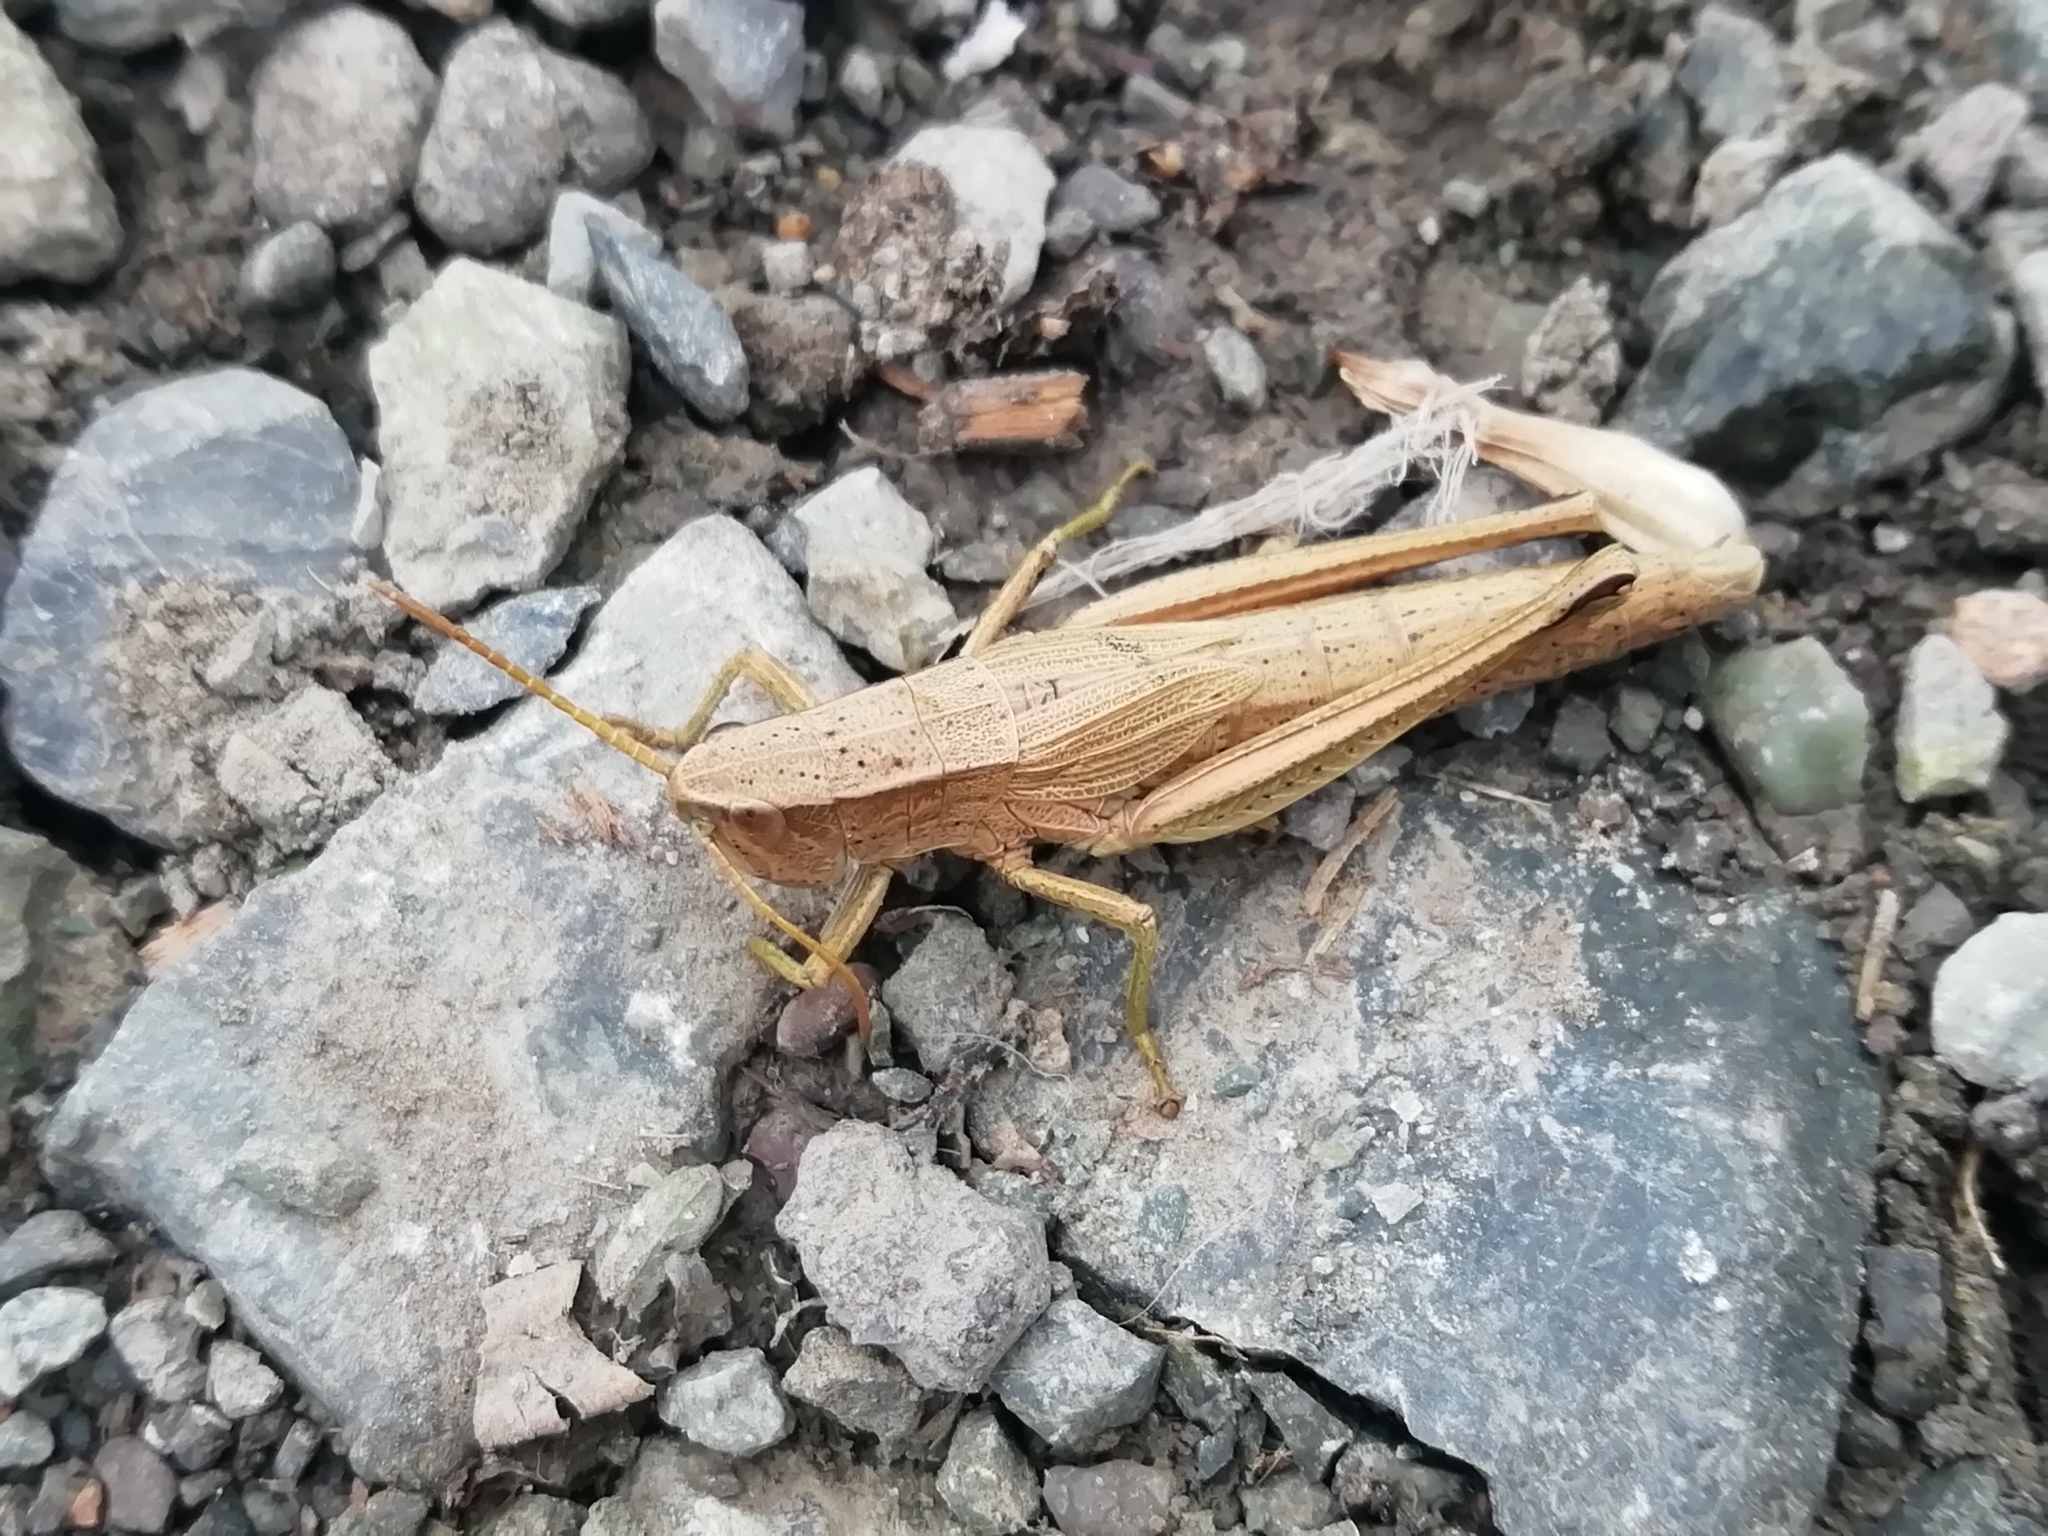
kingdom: Animalia
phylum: Arthropoda
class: Insecta
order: Orthoptera
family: Acrididae
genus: Chrysochraon
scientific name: Chrysochraon dispar
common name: Large gold grasshopper
